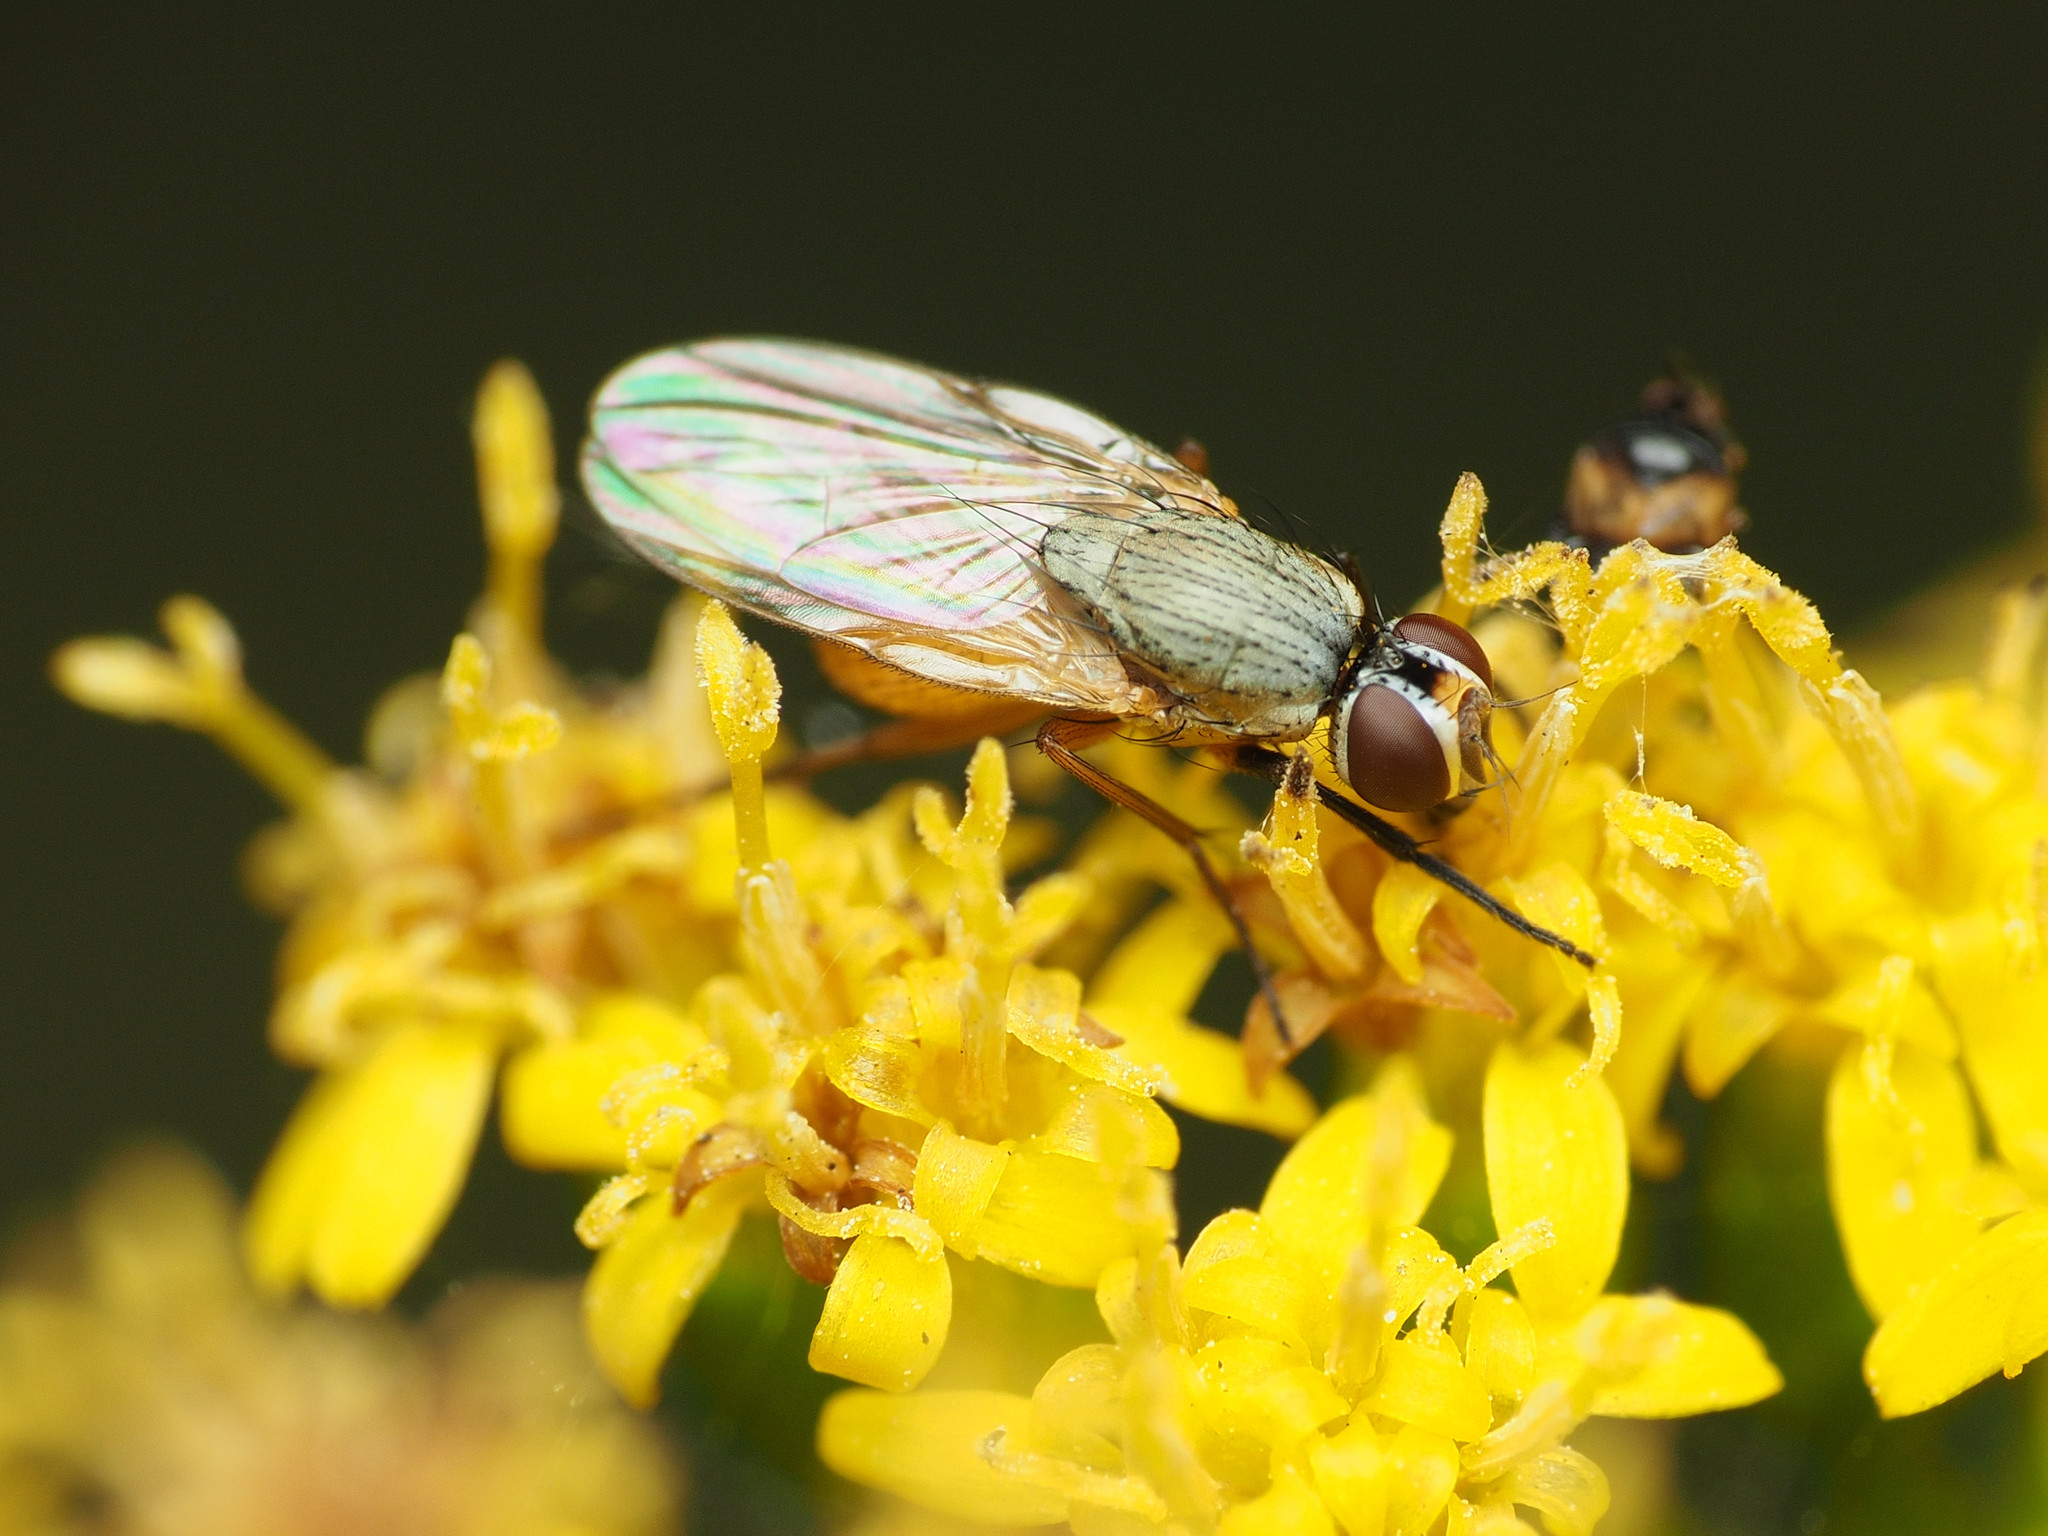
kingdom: Animalia
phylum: Arthropoda
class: Insecta
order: Diptera
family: Muscidae
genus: Atherigona
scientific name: Atherigona reversura
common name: Bermudagrass stem maggot
